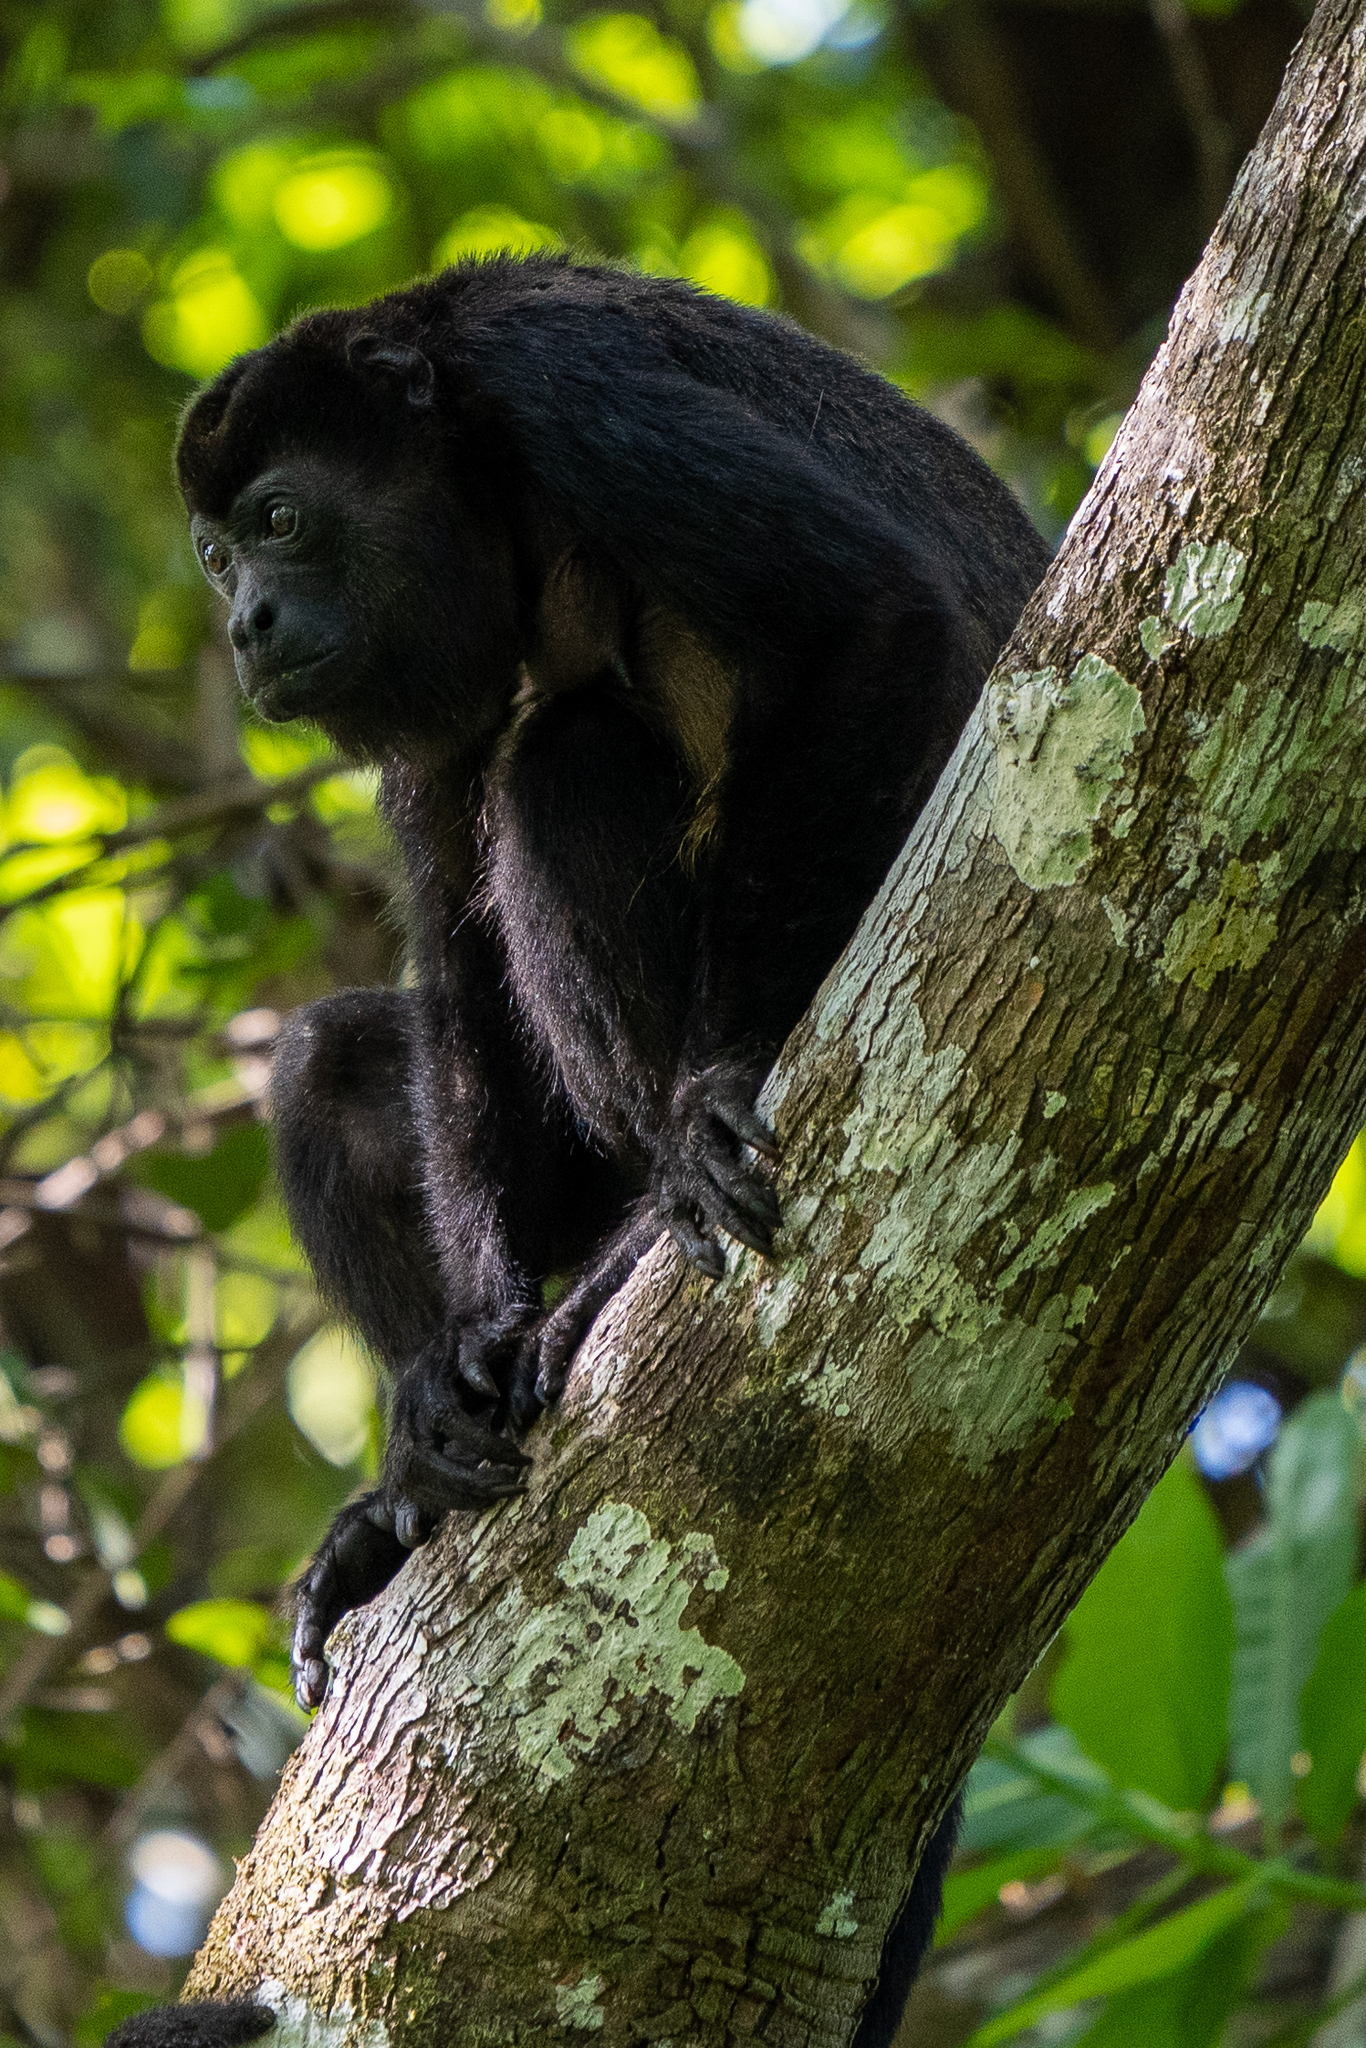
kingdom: Animalia
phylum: Chordata
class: Mammalia
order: Primates
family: Atelidae
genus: Alouatta
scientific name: Alouatta palliata
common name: Mantled howler
